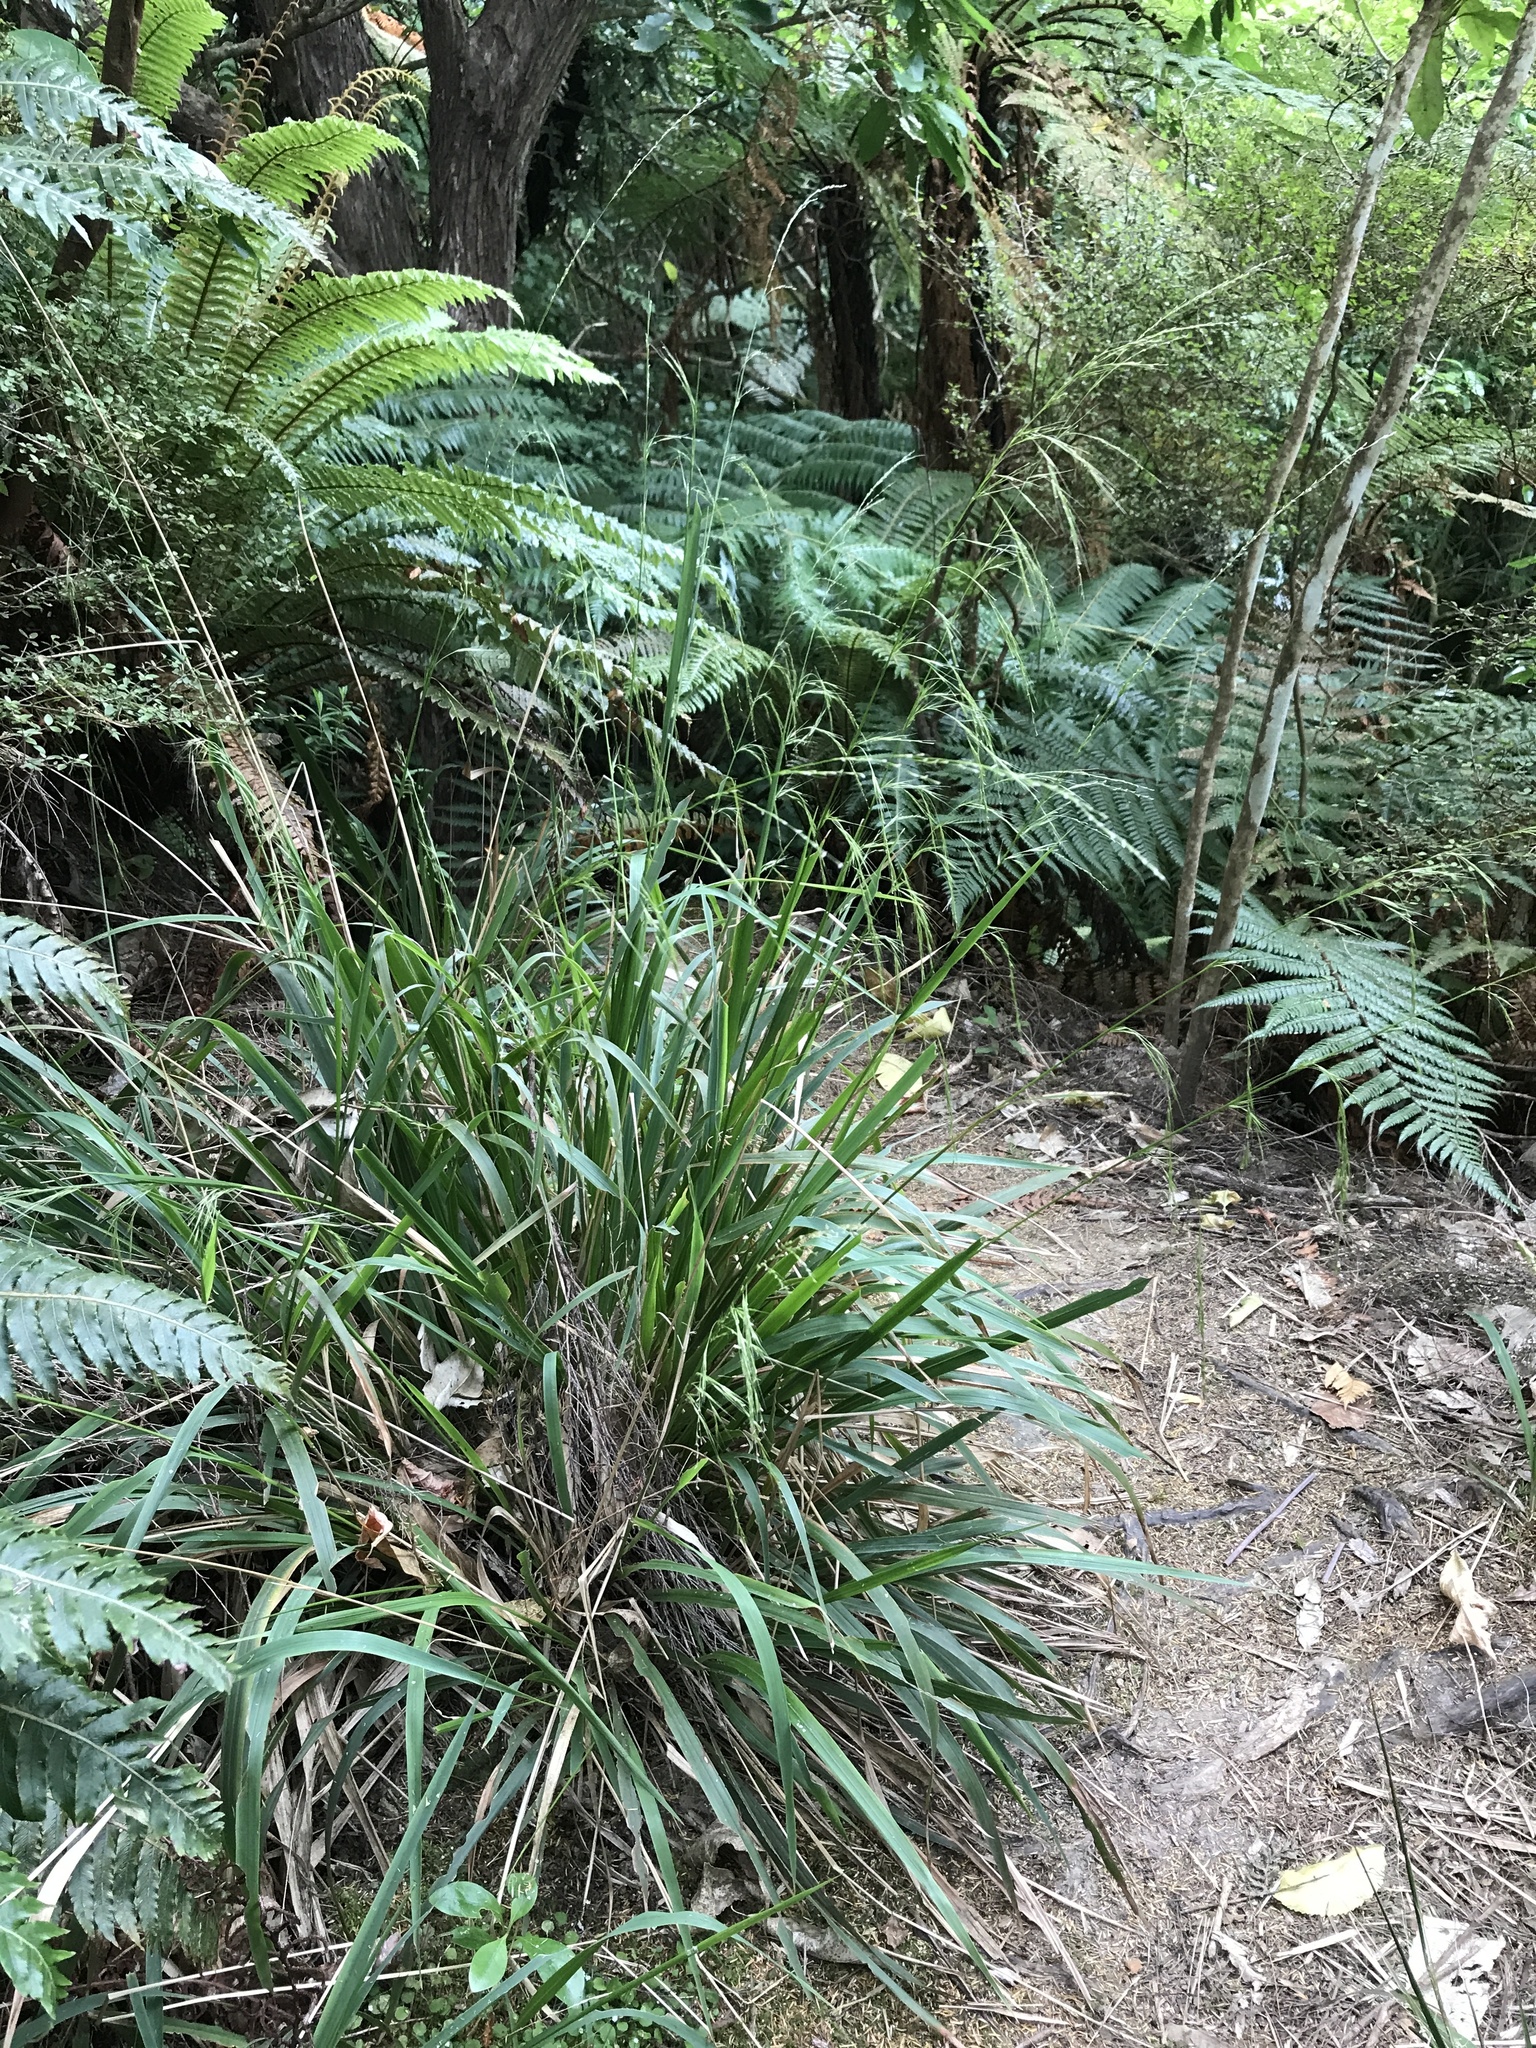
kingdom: Plantae
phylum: Tracheophyta
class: Liliopsida
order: Poales
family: Poaceae
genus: Ehrharta
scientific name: Ehrharta diplax
